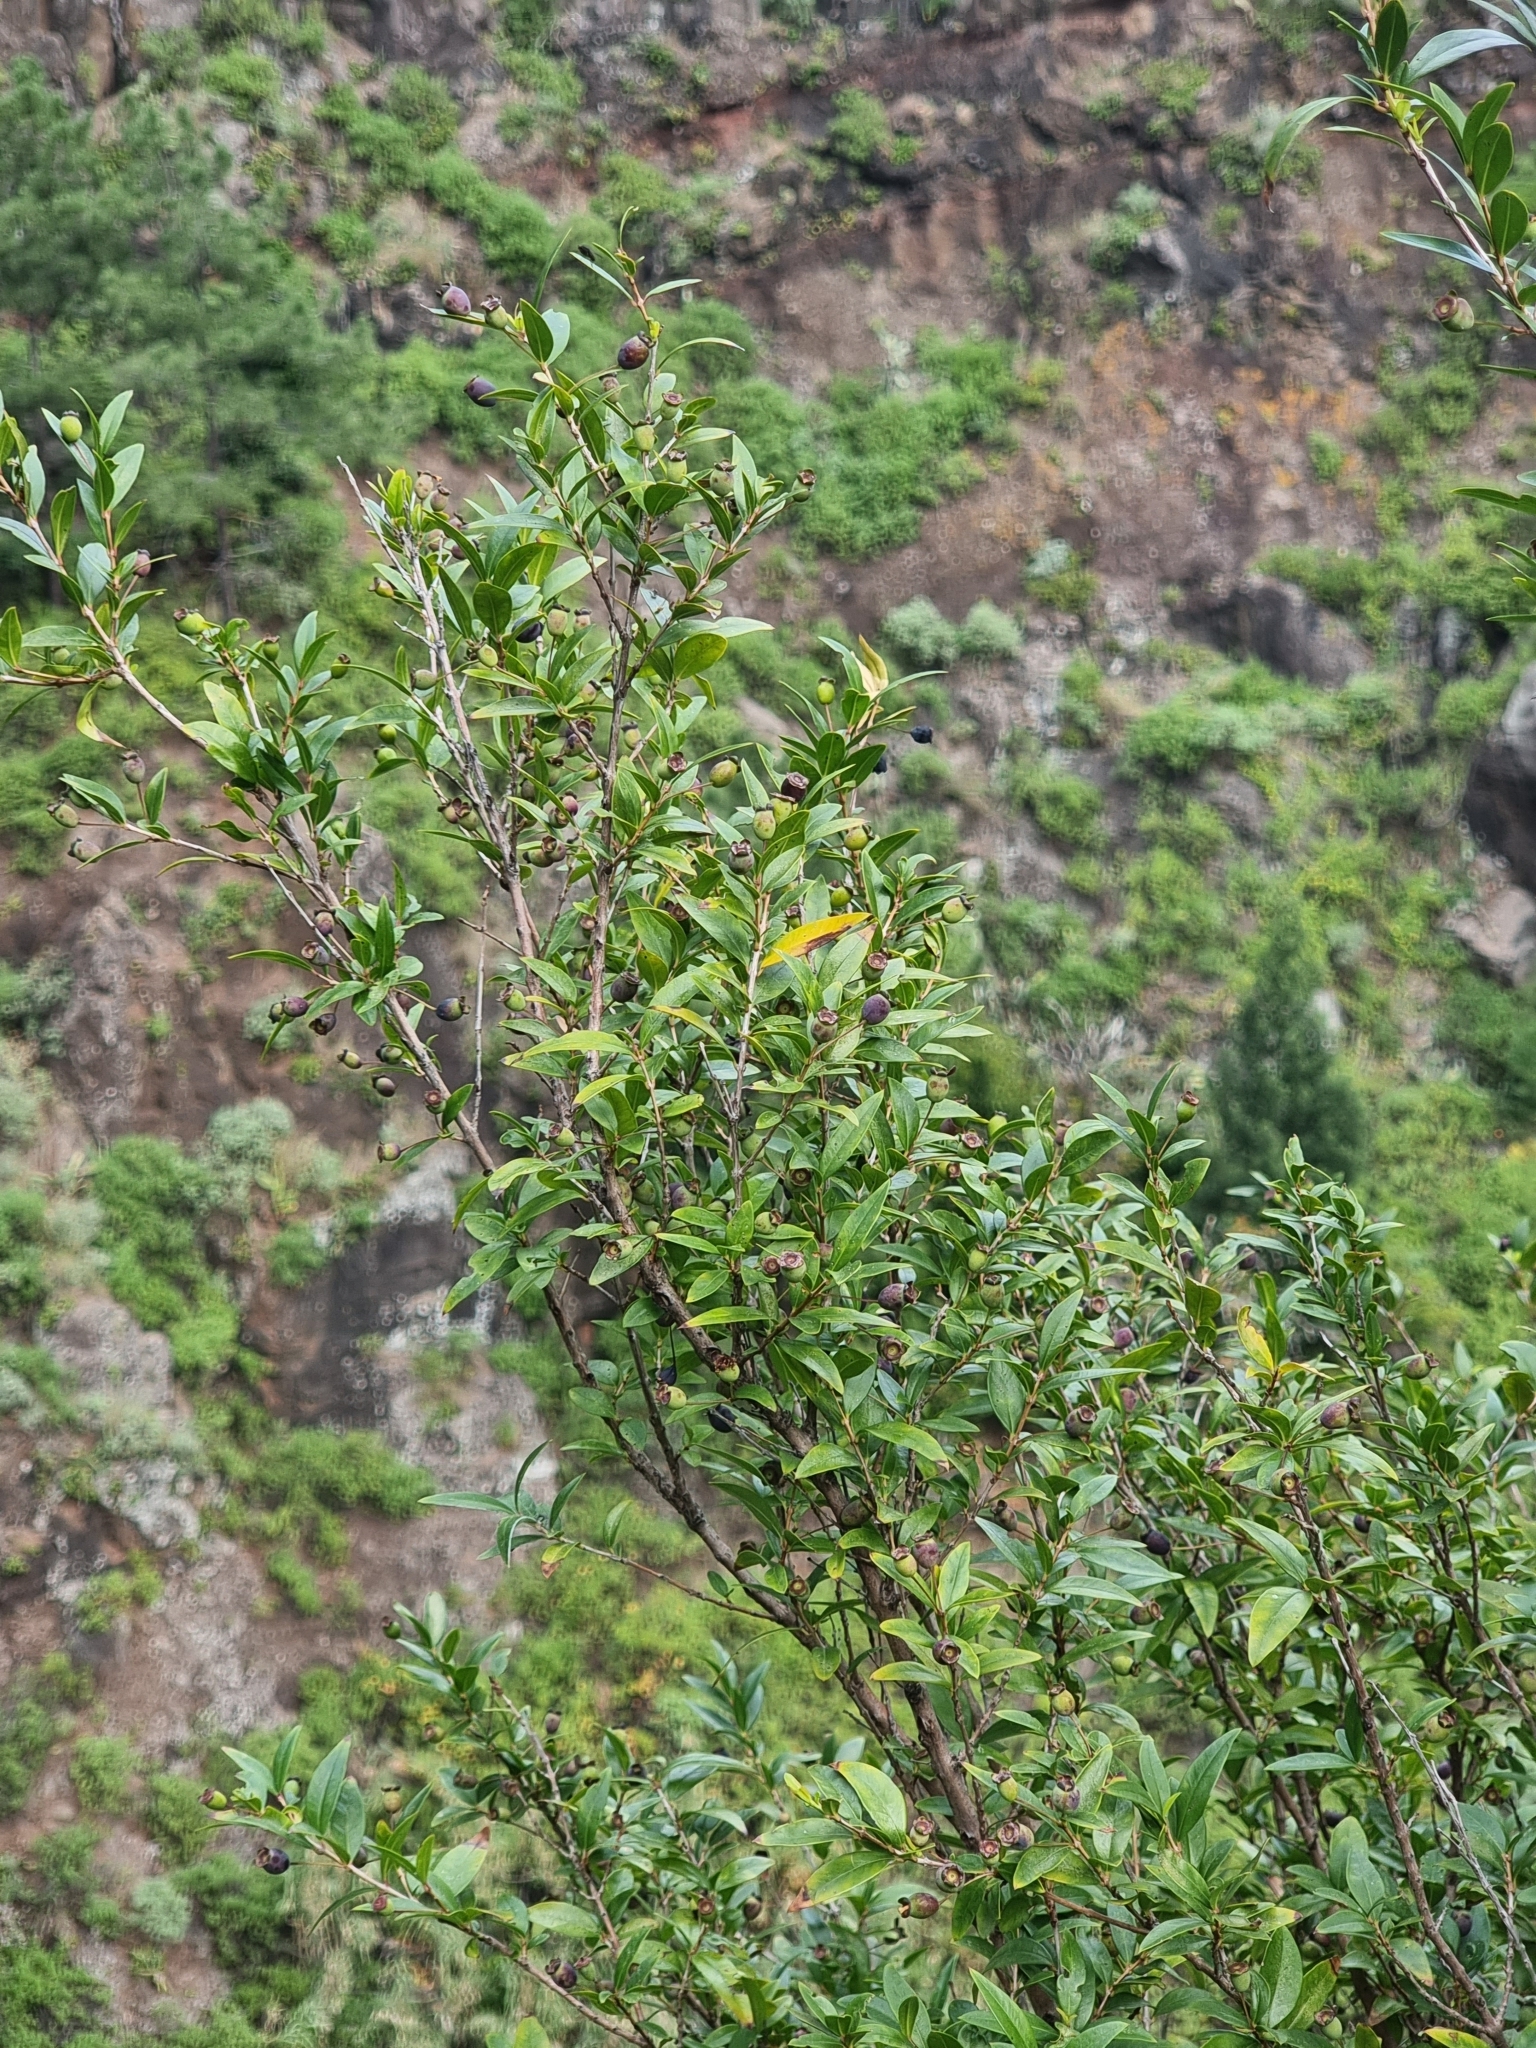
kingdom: Plantae
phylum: Tracheophyta
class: Magnoliopsida
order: Myrtales
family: Myrtaceae
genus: Myrtus
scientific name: Myrtus communis
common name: Myrtle
